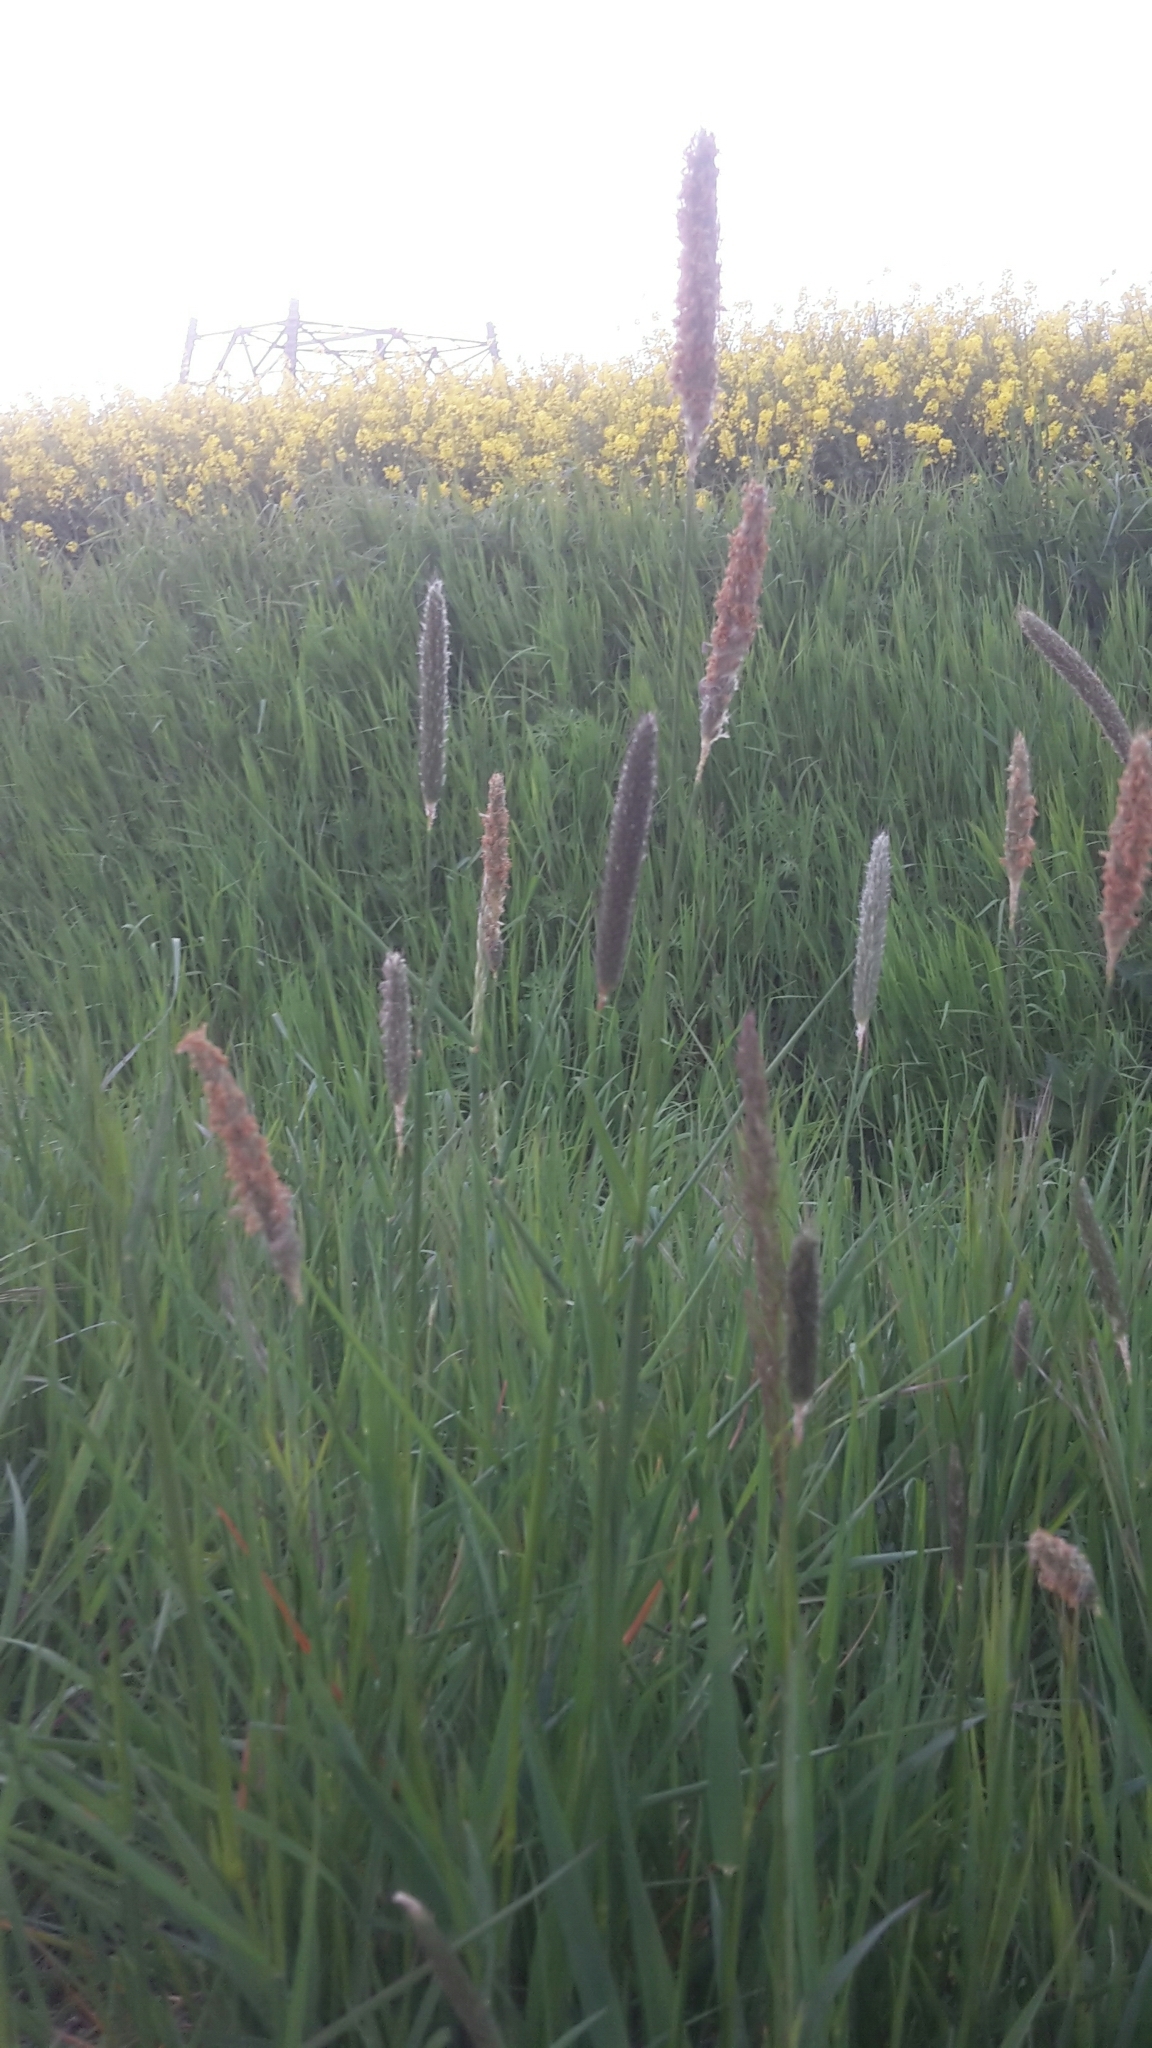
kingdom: Plantae
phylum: Tracheophyta
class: Liliopsida
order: Poales
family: Poaceae
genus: Alopecurus
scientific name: Alopecurus pratensis
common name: Meadow foxtail
